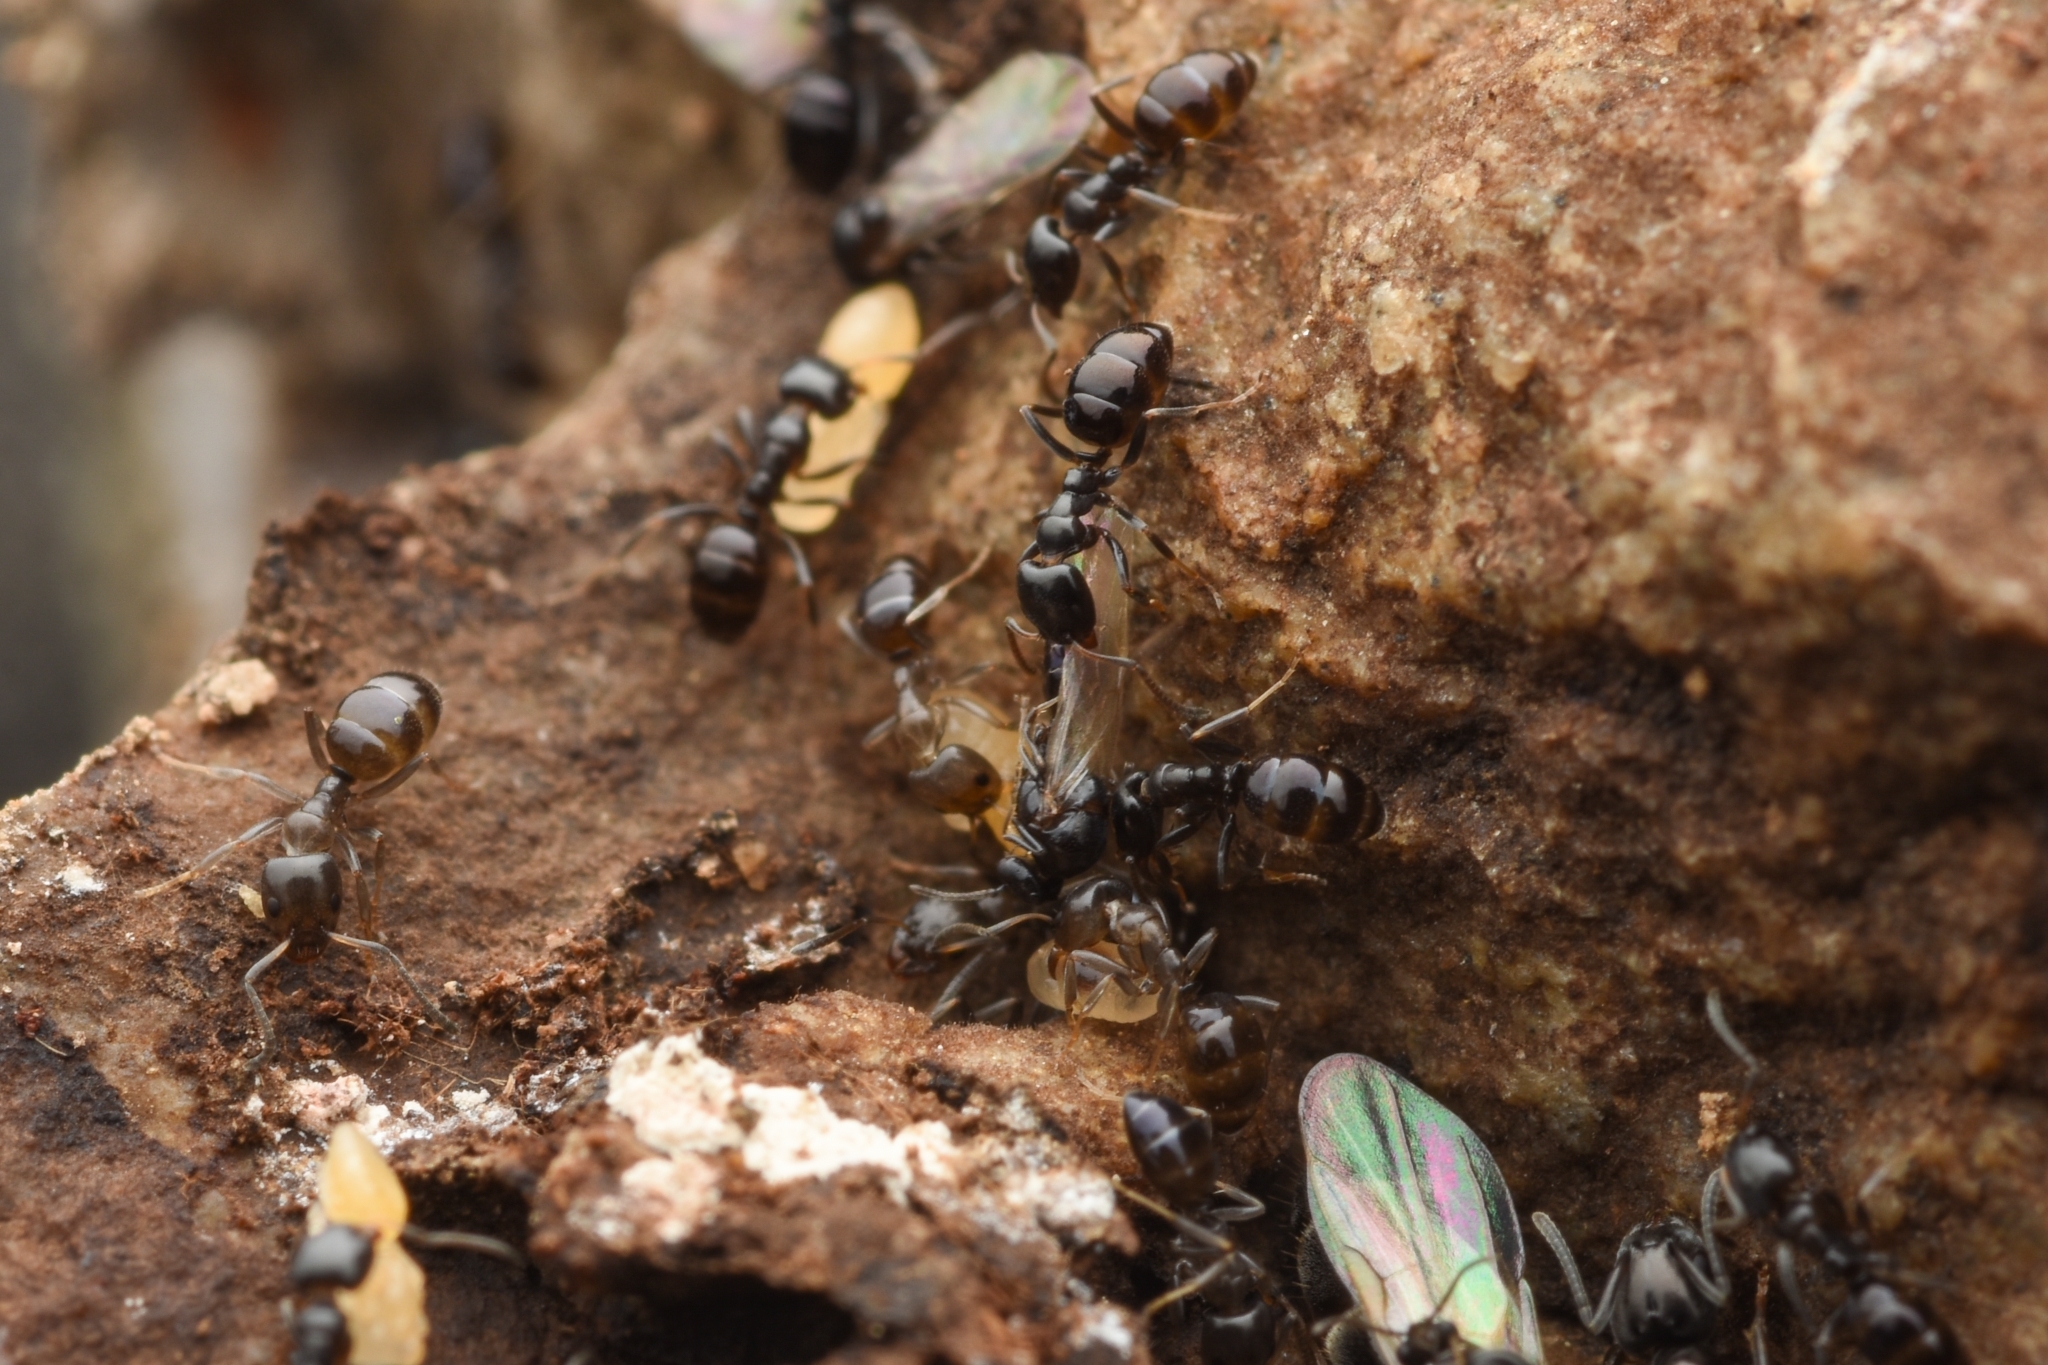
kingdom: Animalia
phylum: Arthropoda
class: Insecta
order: Hymenoptera
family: Formicidae
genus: Ochetellus
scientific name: Ochetellus glaber
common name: Ant
